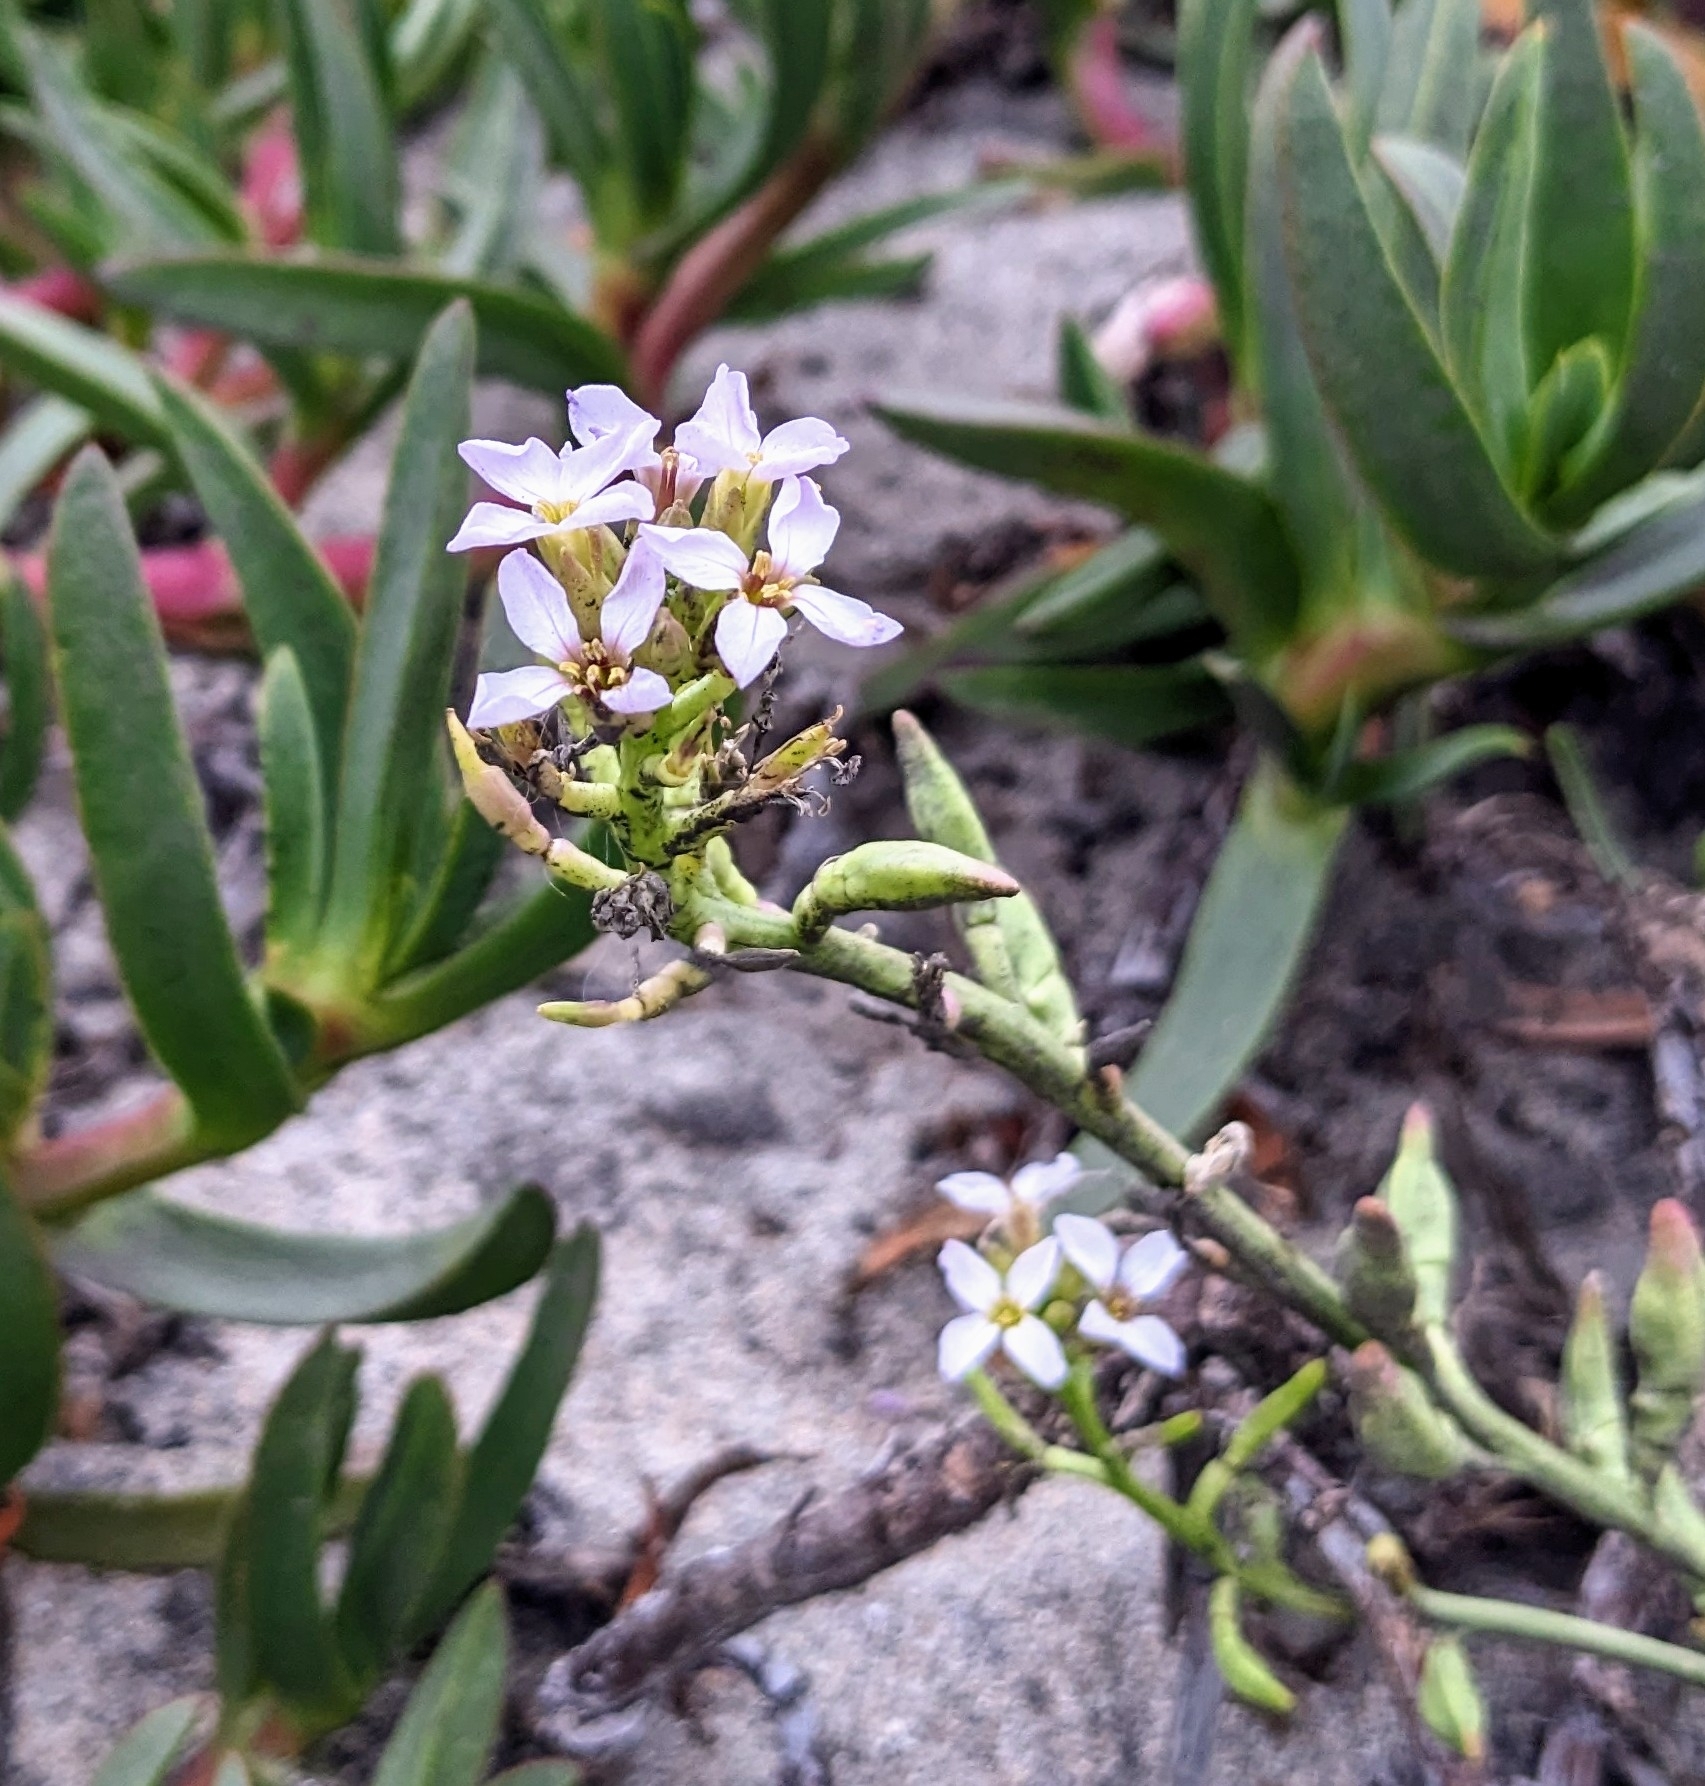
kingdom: Plantae
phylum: Tracheophyta
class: Magnoliopsida
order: Brassicales
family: Brassicaceae
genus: Cakile
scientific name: Cakile maritima
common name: Sea rocket
